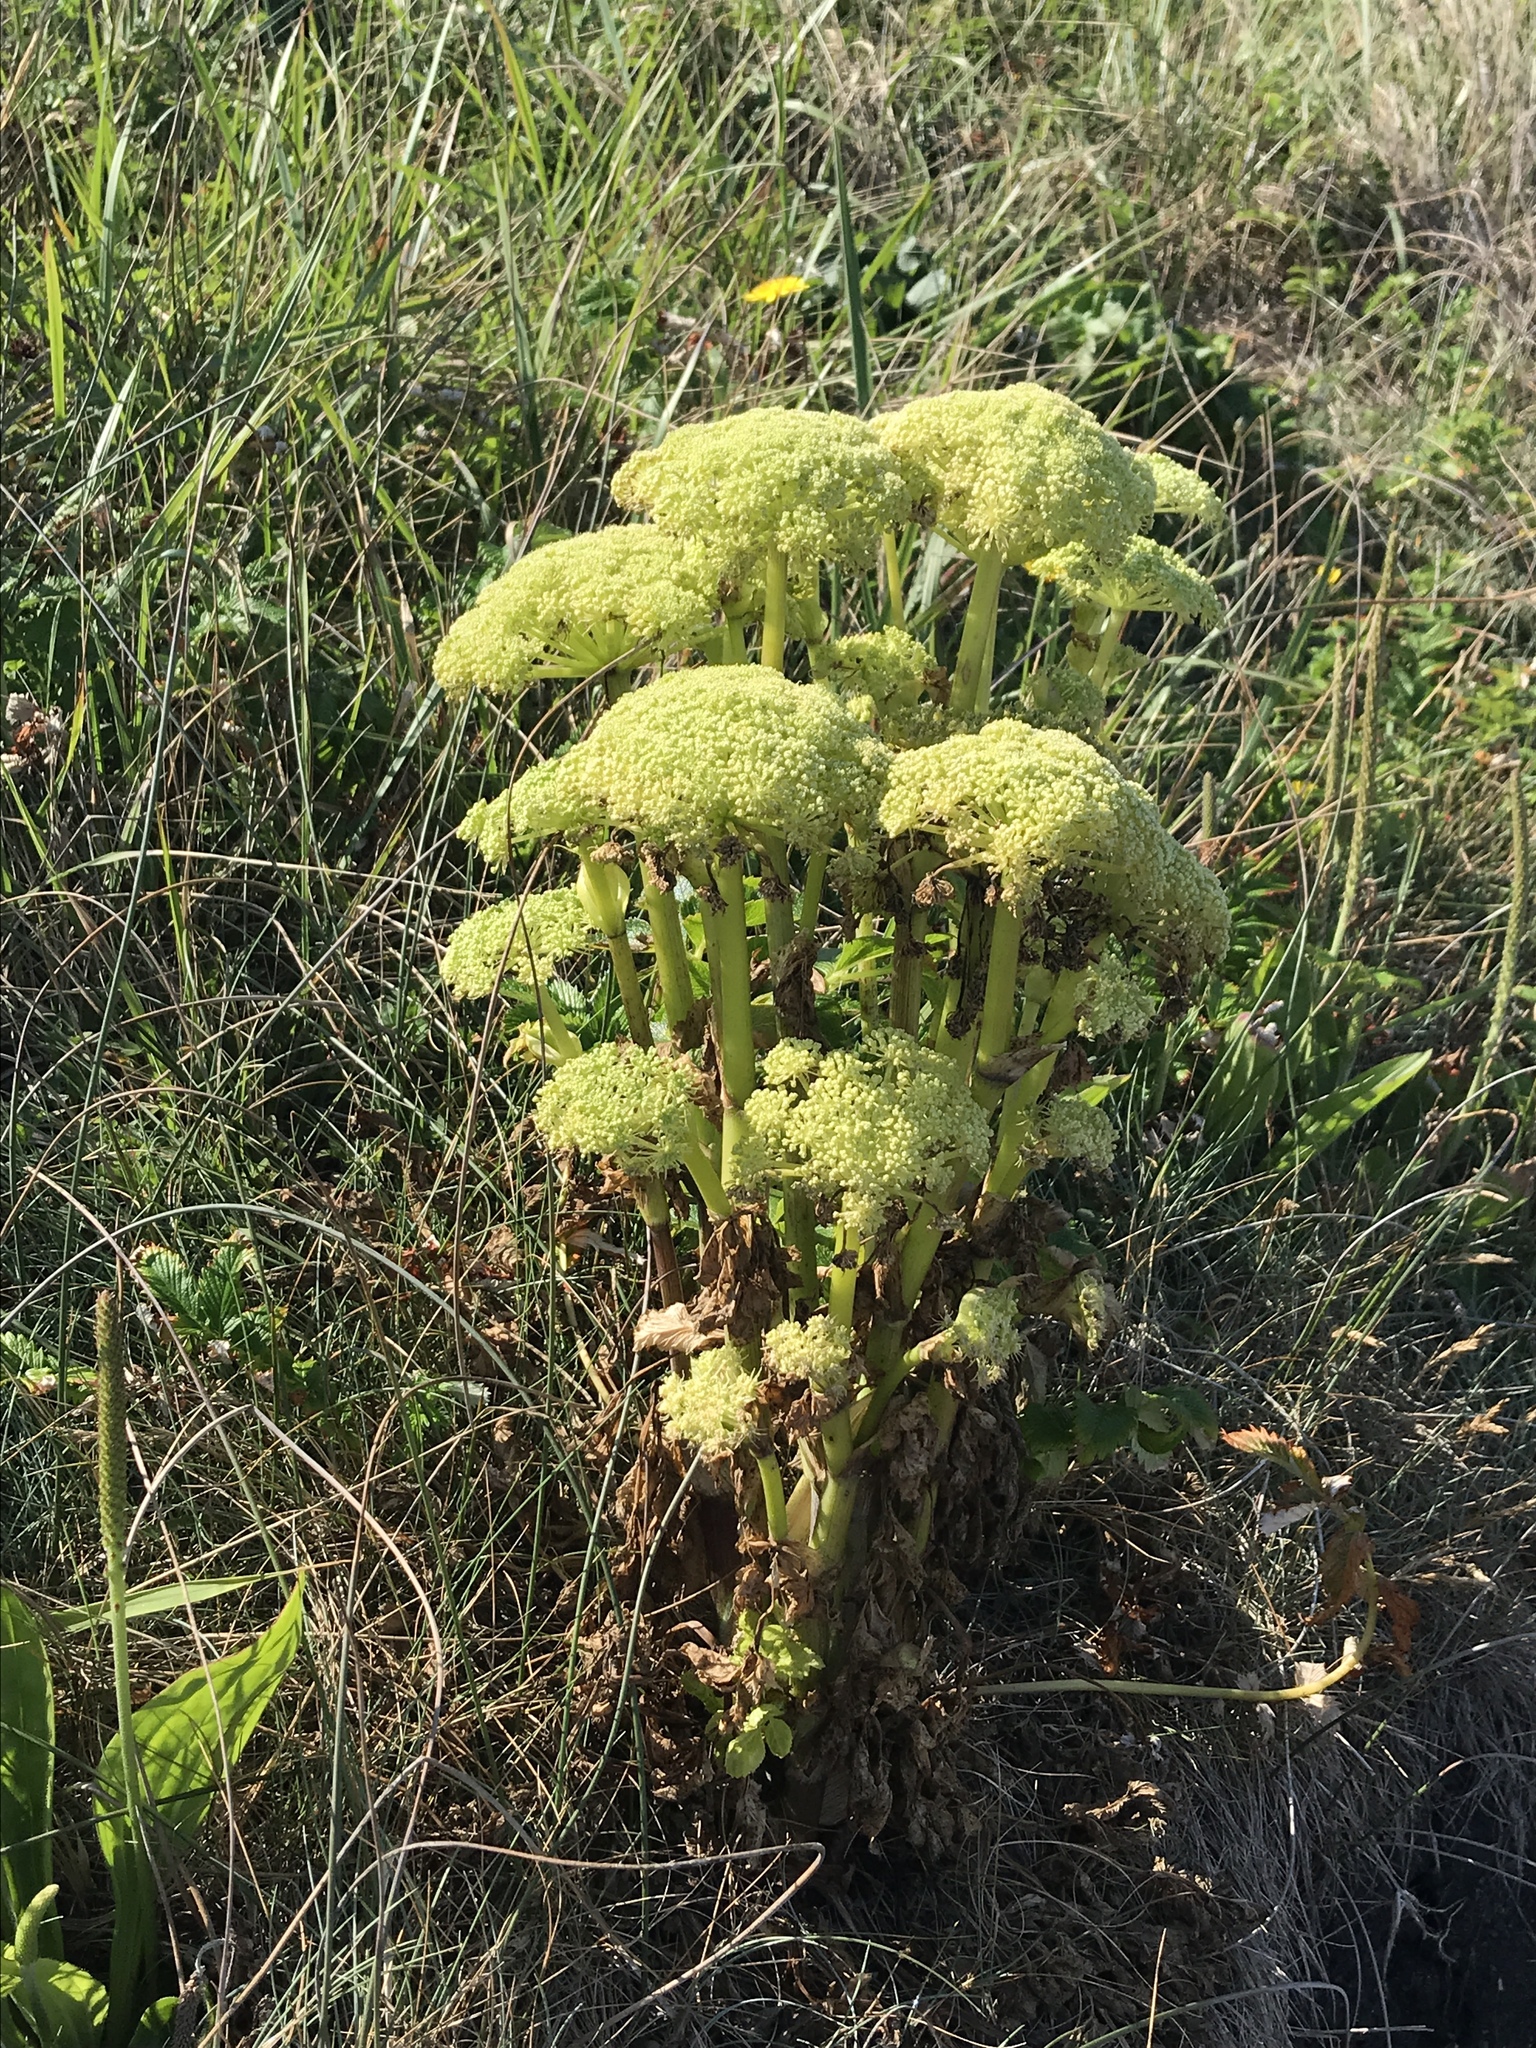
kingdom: Plantae
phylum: Tracheophyta
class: Magnoliopsida
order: Apiales
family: Apiaceae
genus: Angelica
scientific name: Angelica lucida
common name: Seabeach angelica
